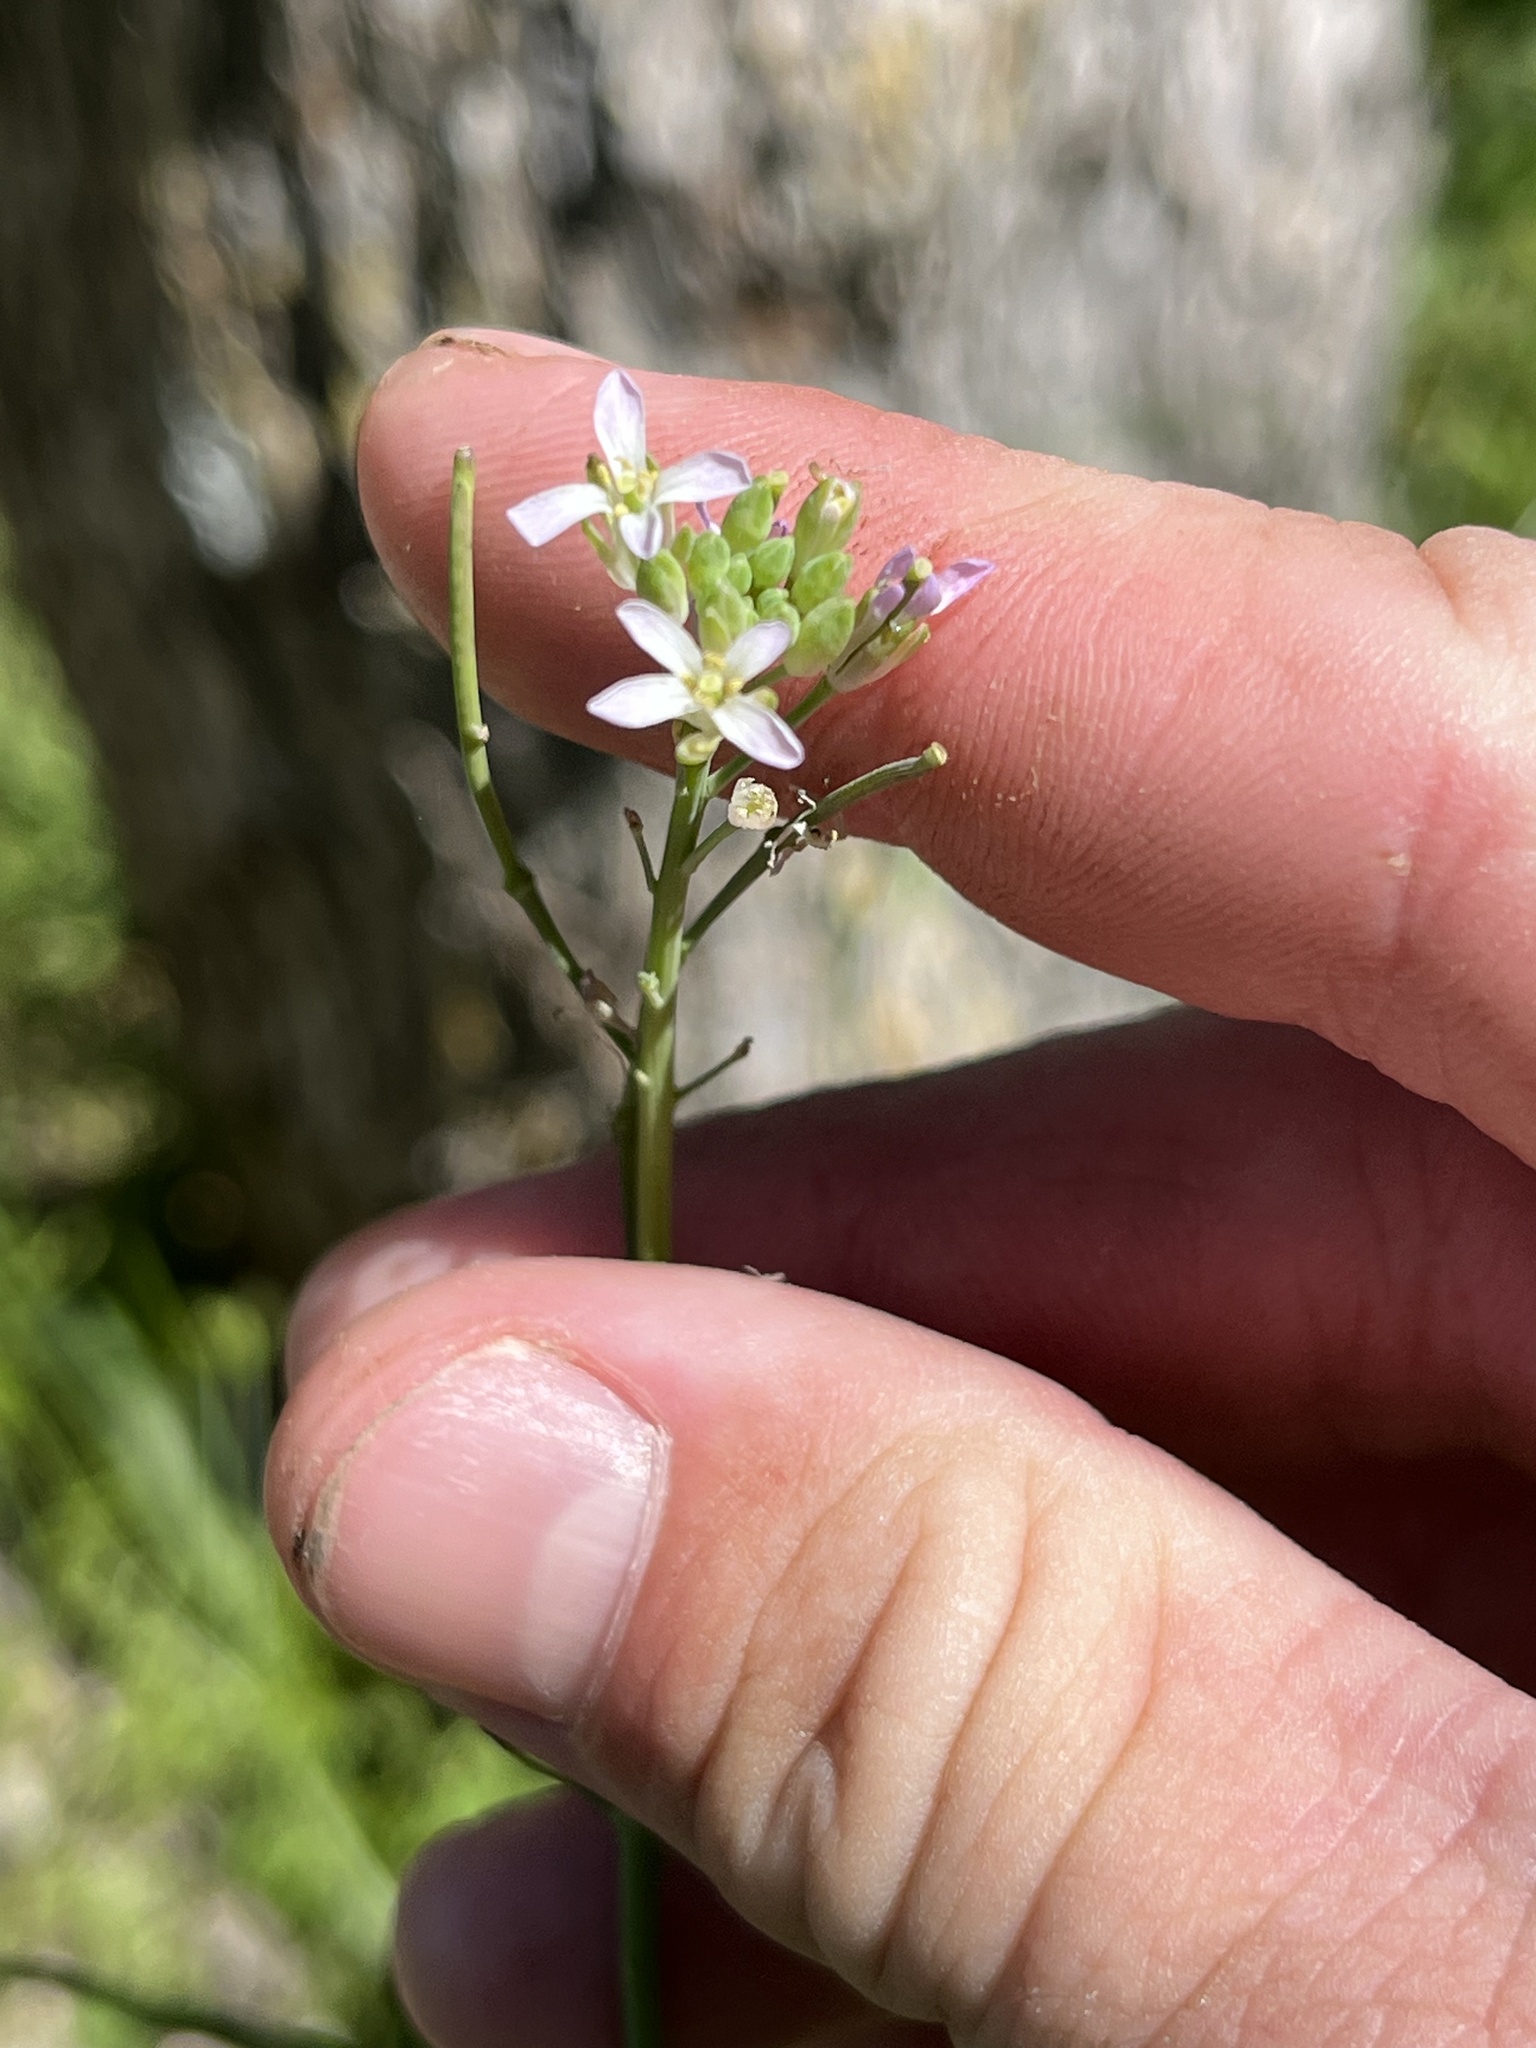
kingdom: Plantae
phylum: Tracheophyta
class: Magnoliopsida
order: Brassicales
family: Brassicaceae
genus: Streptanthus
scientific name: Streptanthus petiolaris
